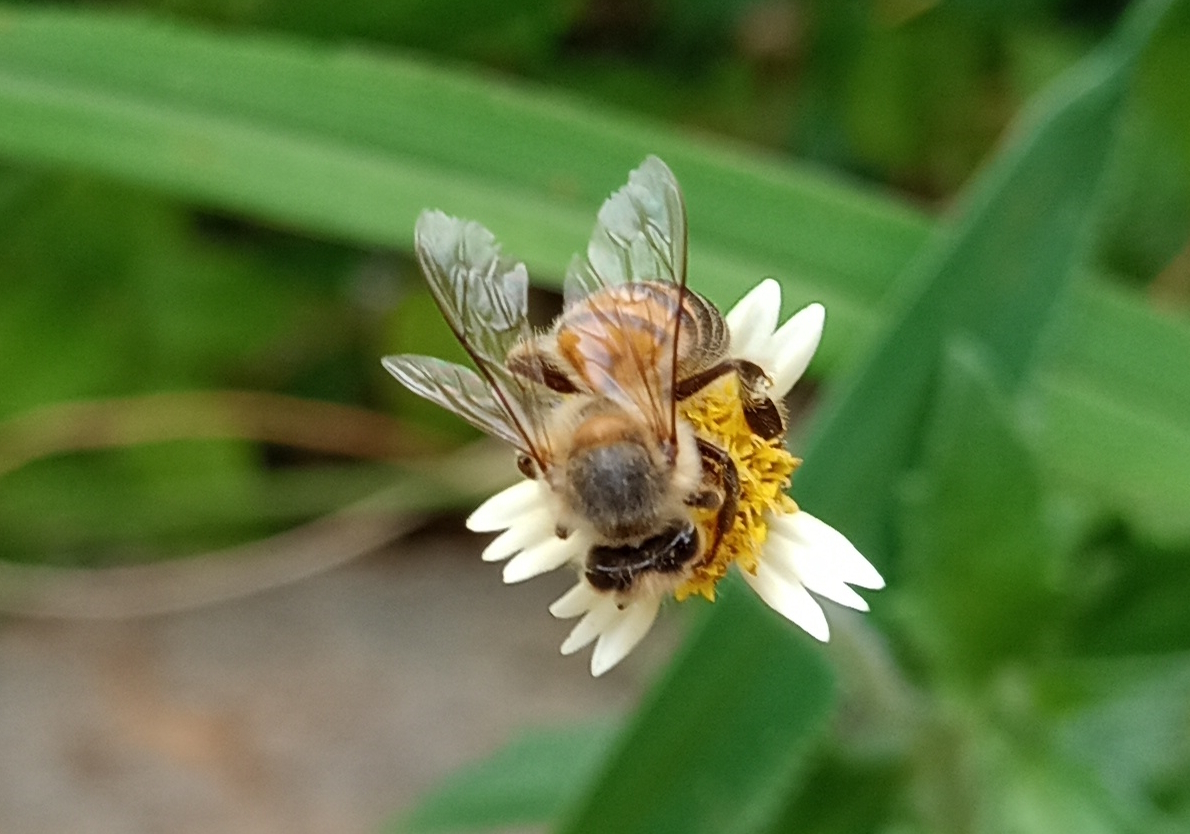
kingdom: Animalia
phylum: Arthropoda
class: Insecta
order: Hymenoptera
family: Apidae
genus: Apis
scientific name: Apis mellifera
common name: Honey bee
